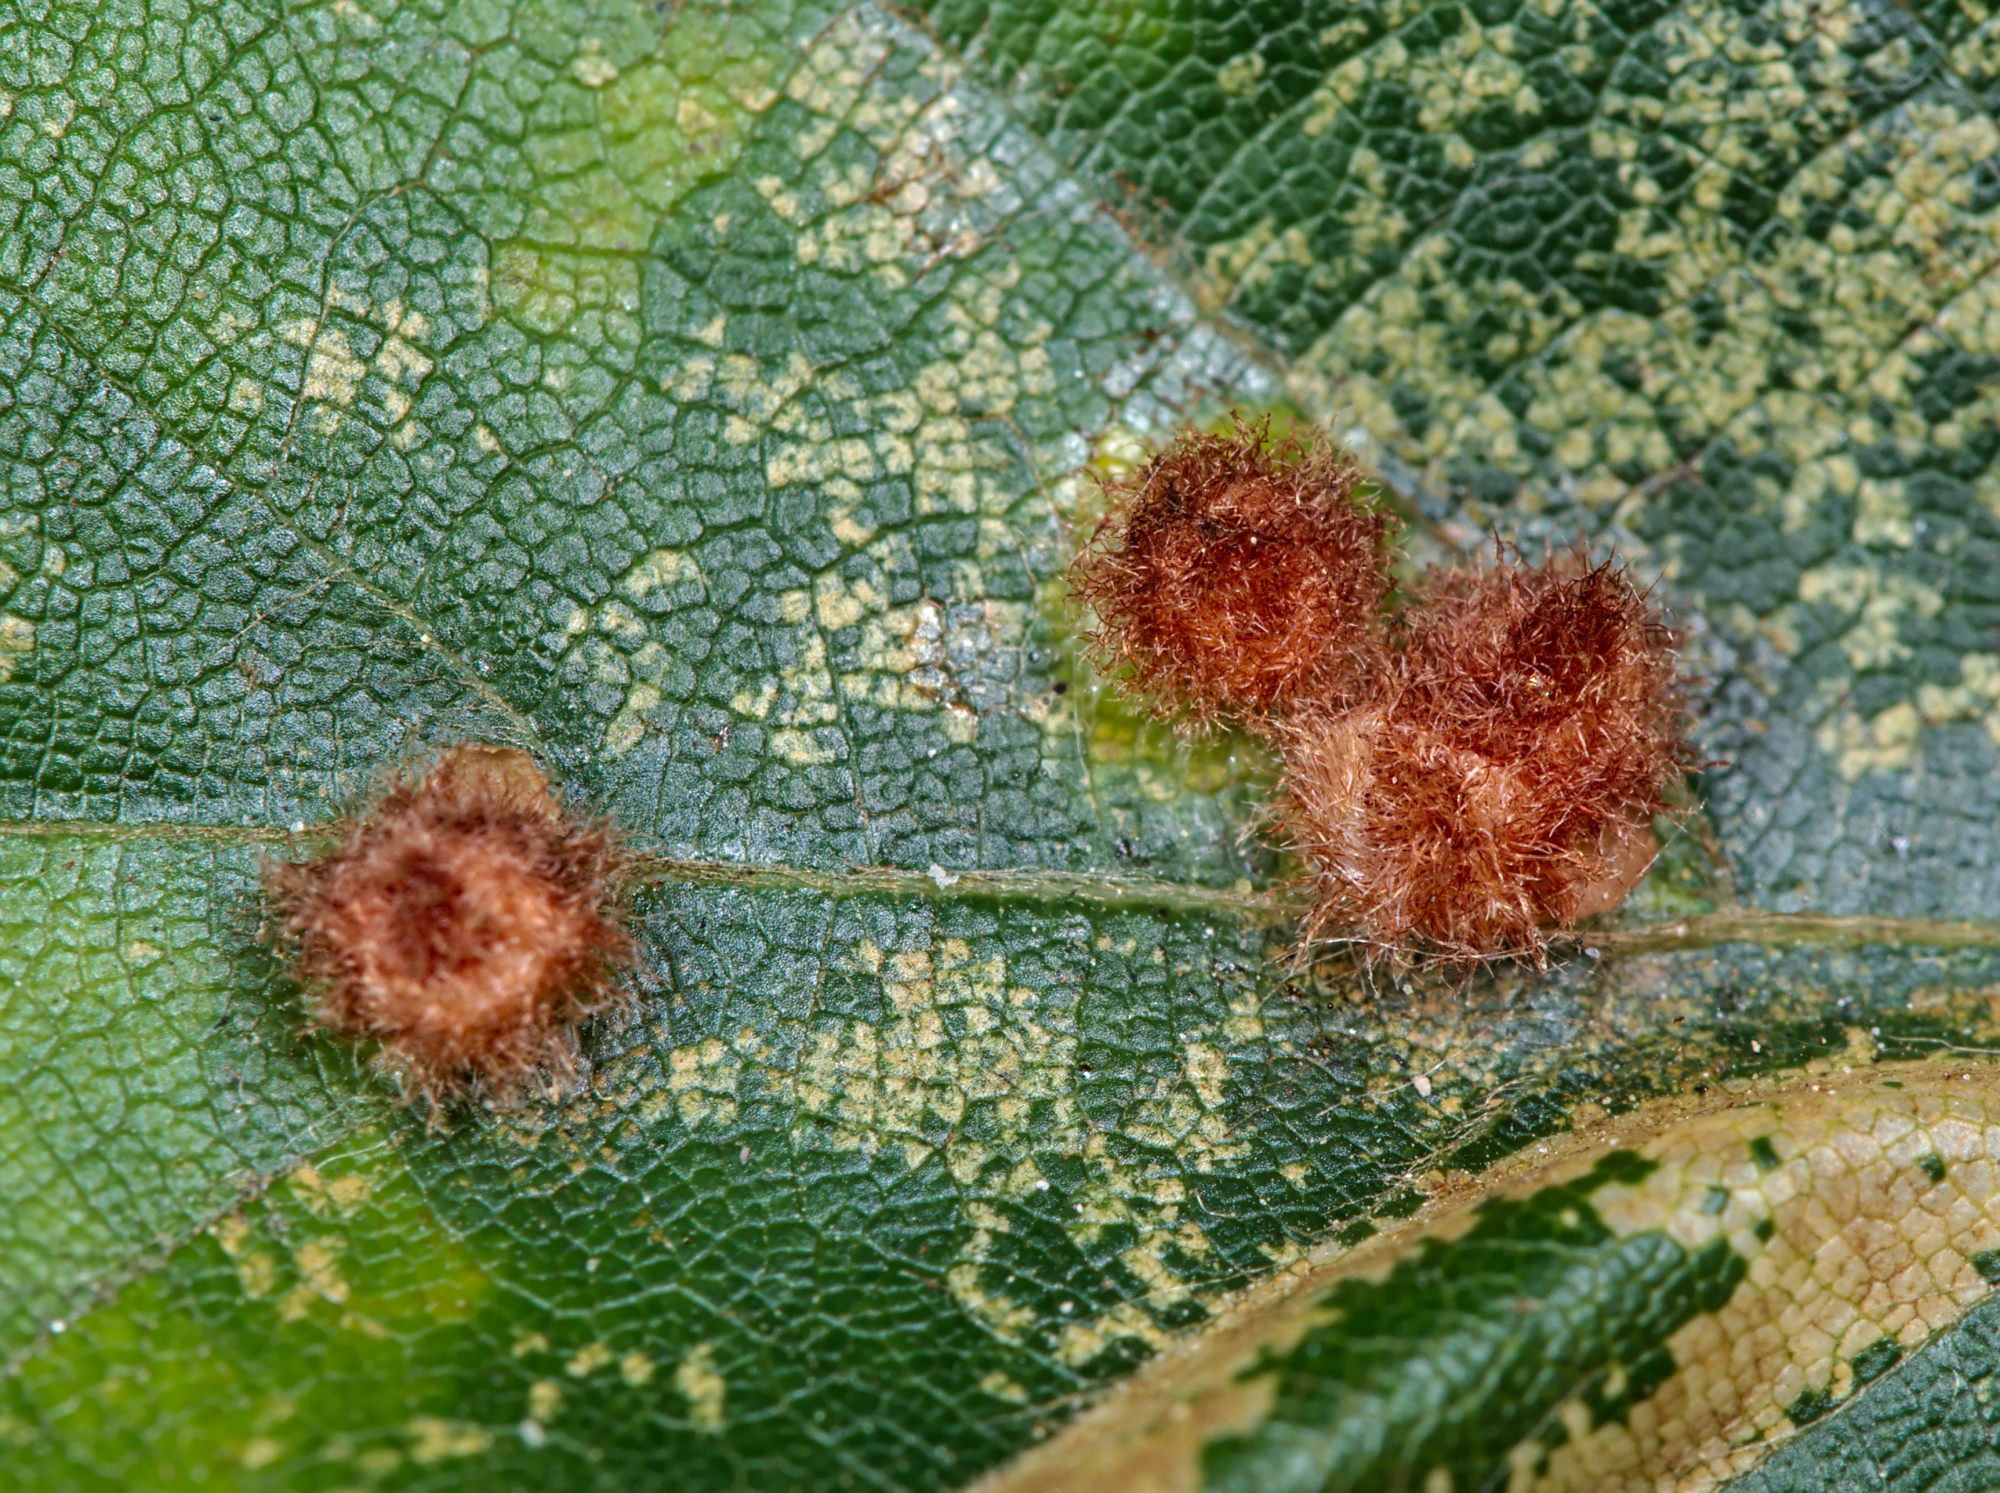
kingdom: Animalia
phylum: Arthropoda
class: Insecta
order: Diptera
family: Cecidomyiidae
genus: Hartigiola
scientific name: Hartigiola annulipes
